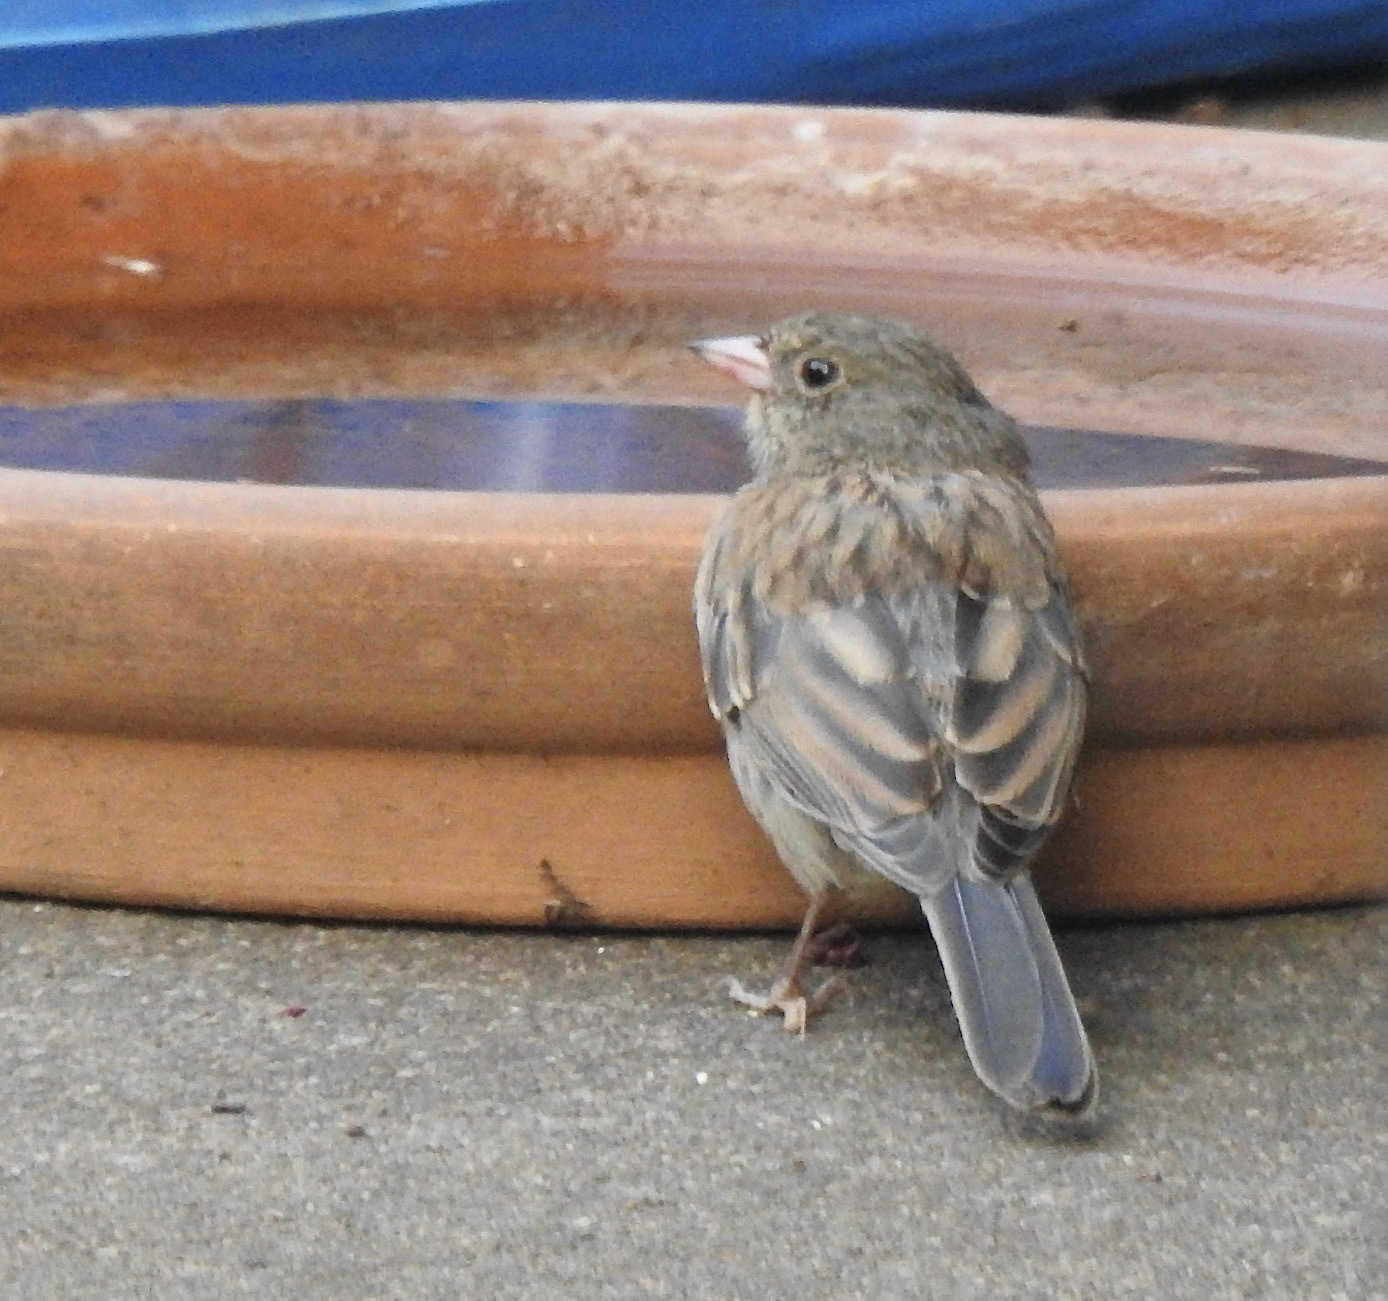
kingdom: Animalia
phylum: Chordata
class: Aves
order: Passeriformes
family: Passerellidae
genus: Junco
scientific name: Junco hyemalis
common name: Dark-eyed junco
